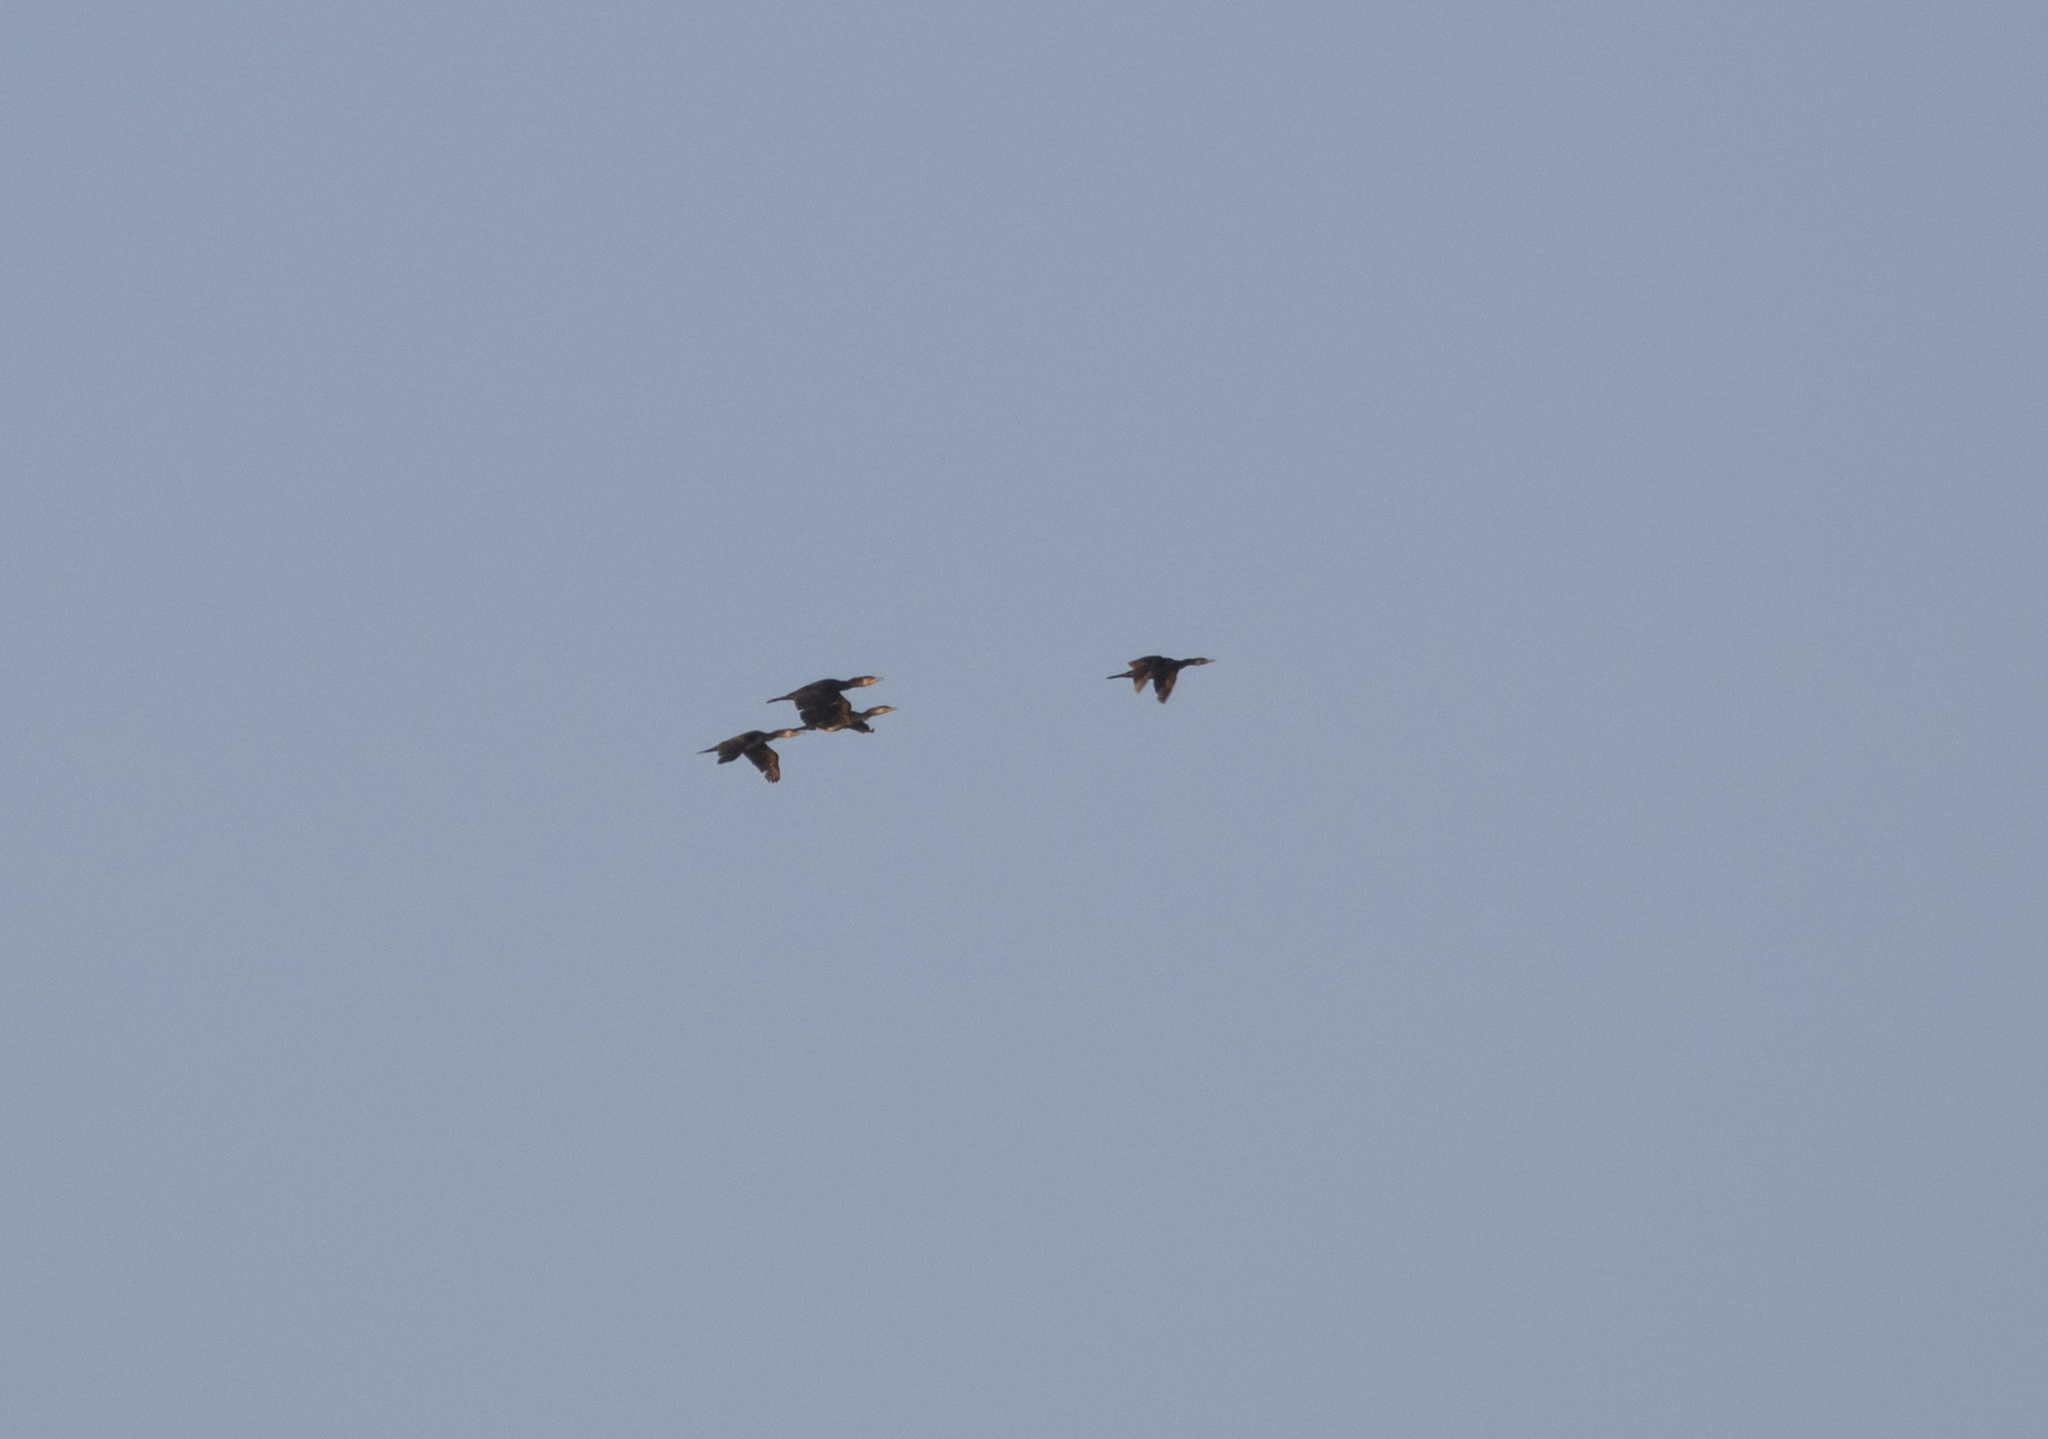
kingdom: Animalia
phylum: Chordata
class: Aves
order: Suliformes
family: Phalacrocoracidae
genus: Phalacrocorax
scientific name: Phalacrocorax carbo
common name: Great cormorant
